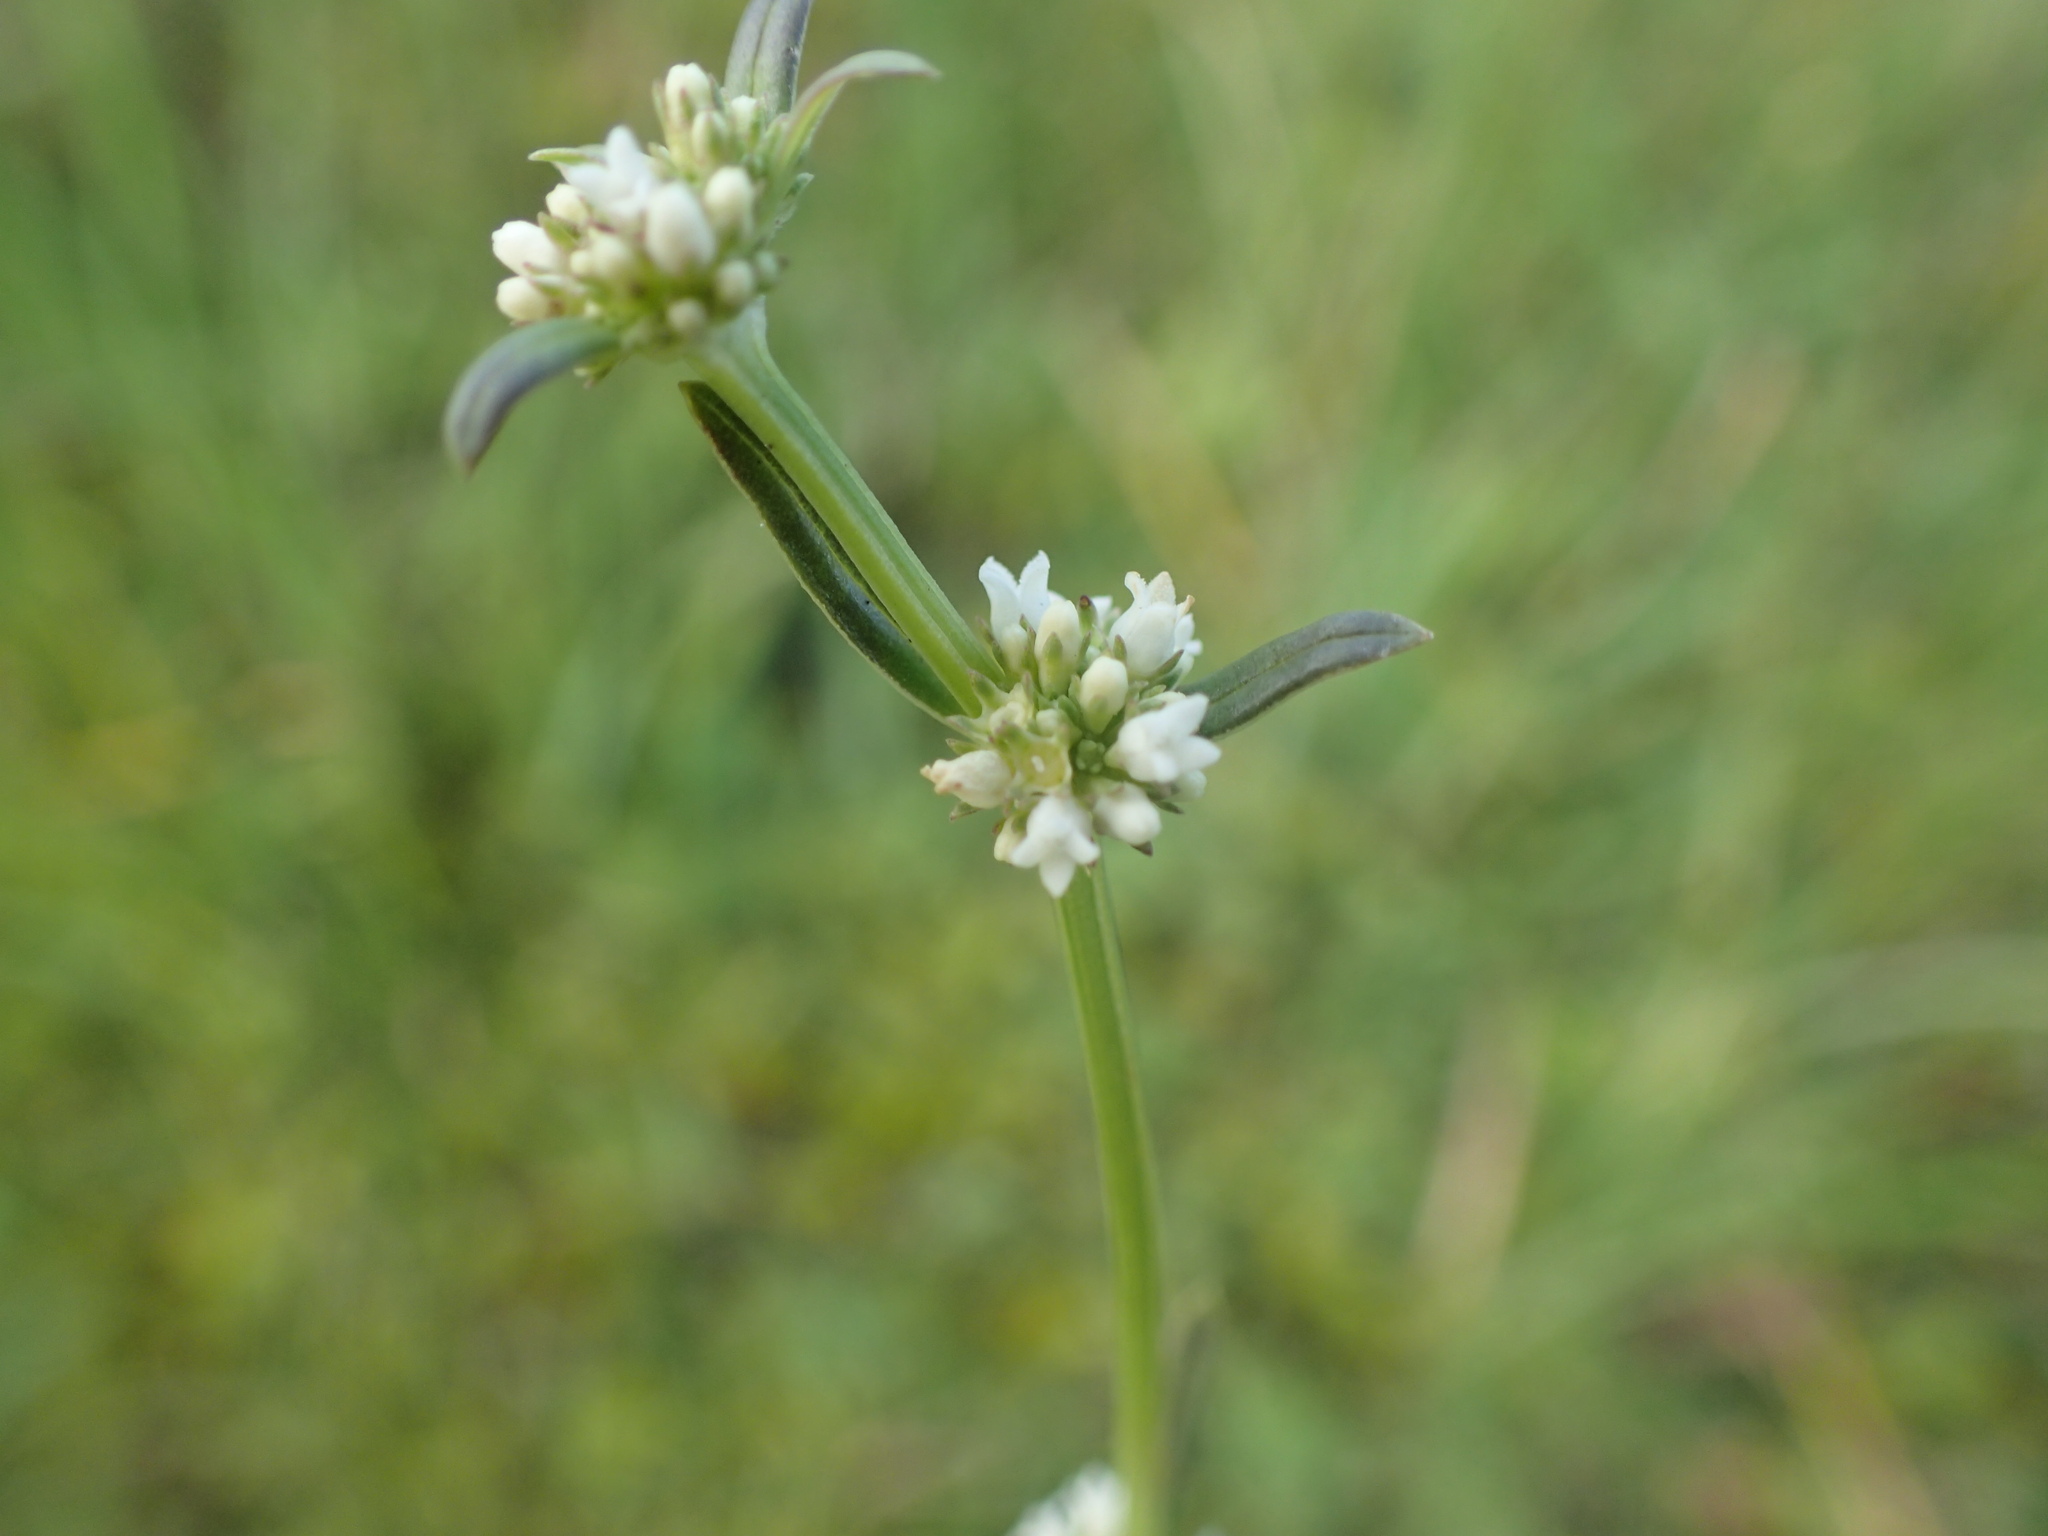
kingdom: Plantae
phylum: Tracheophyta
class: Magnoliopsida
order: Gentianales
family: Rubiaceae
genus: Spermacoce
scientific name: Spermacoce natalensis
